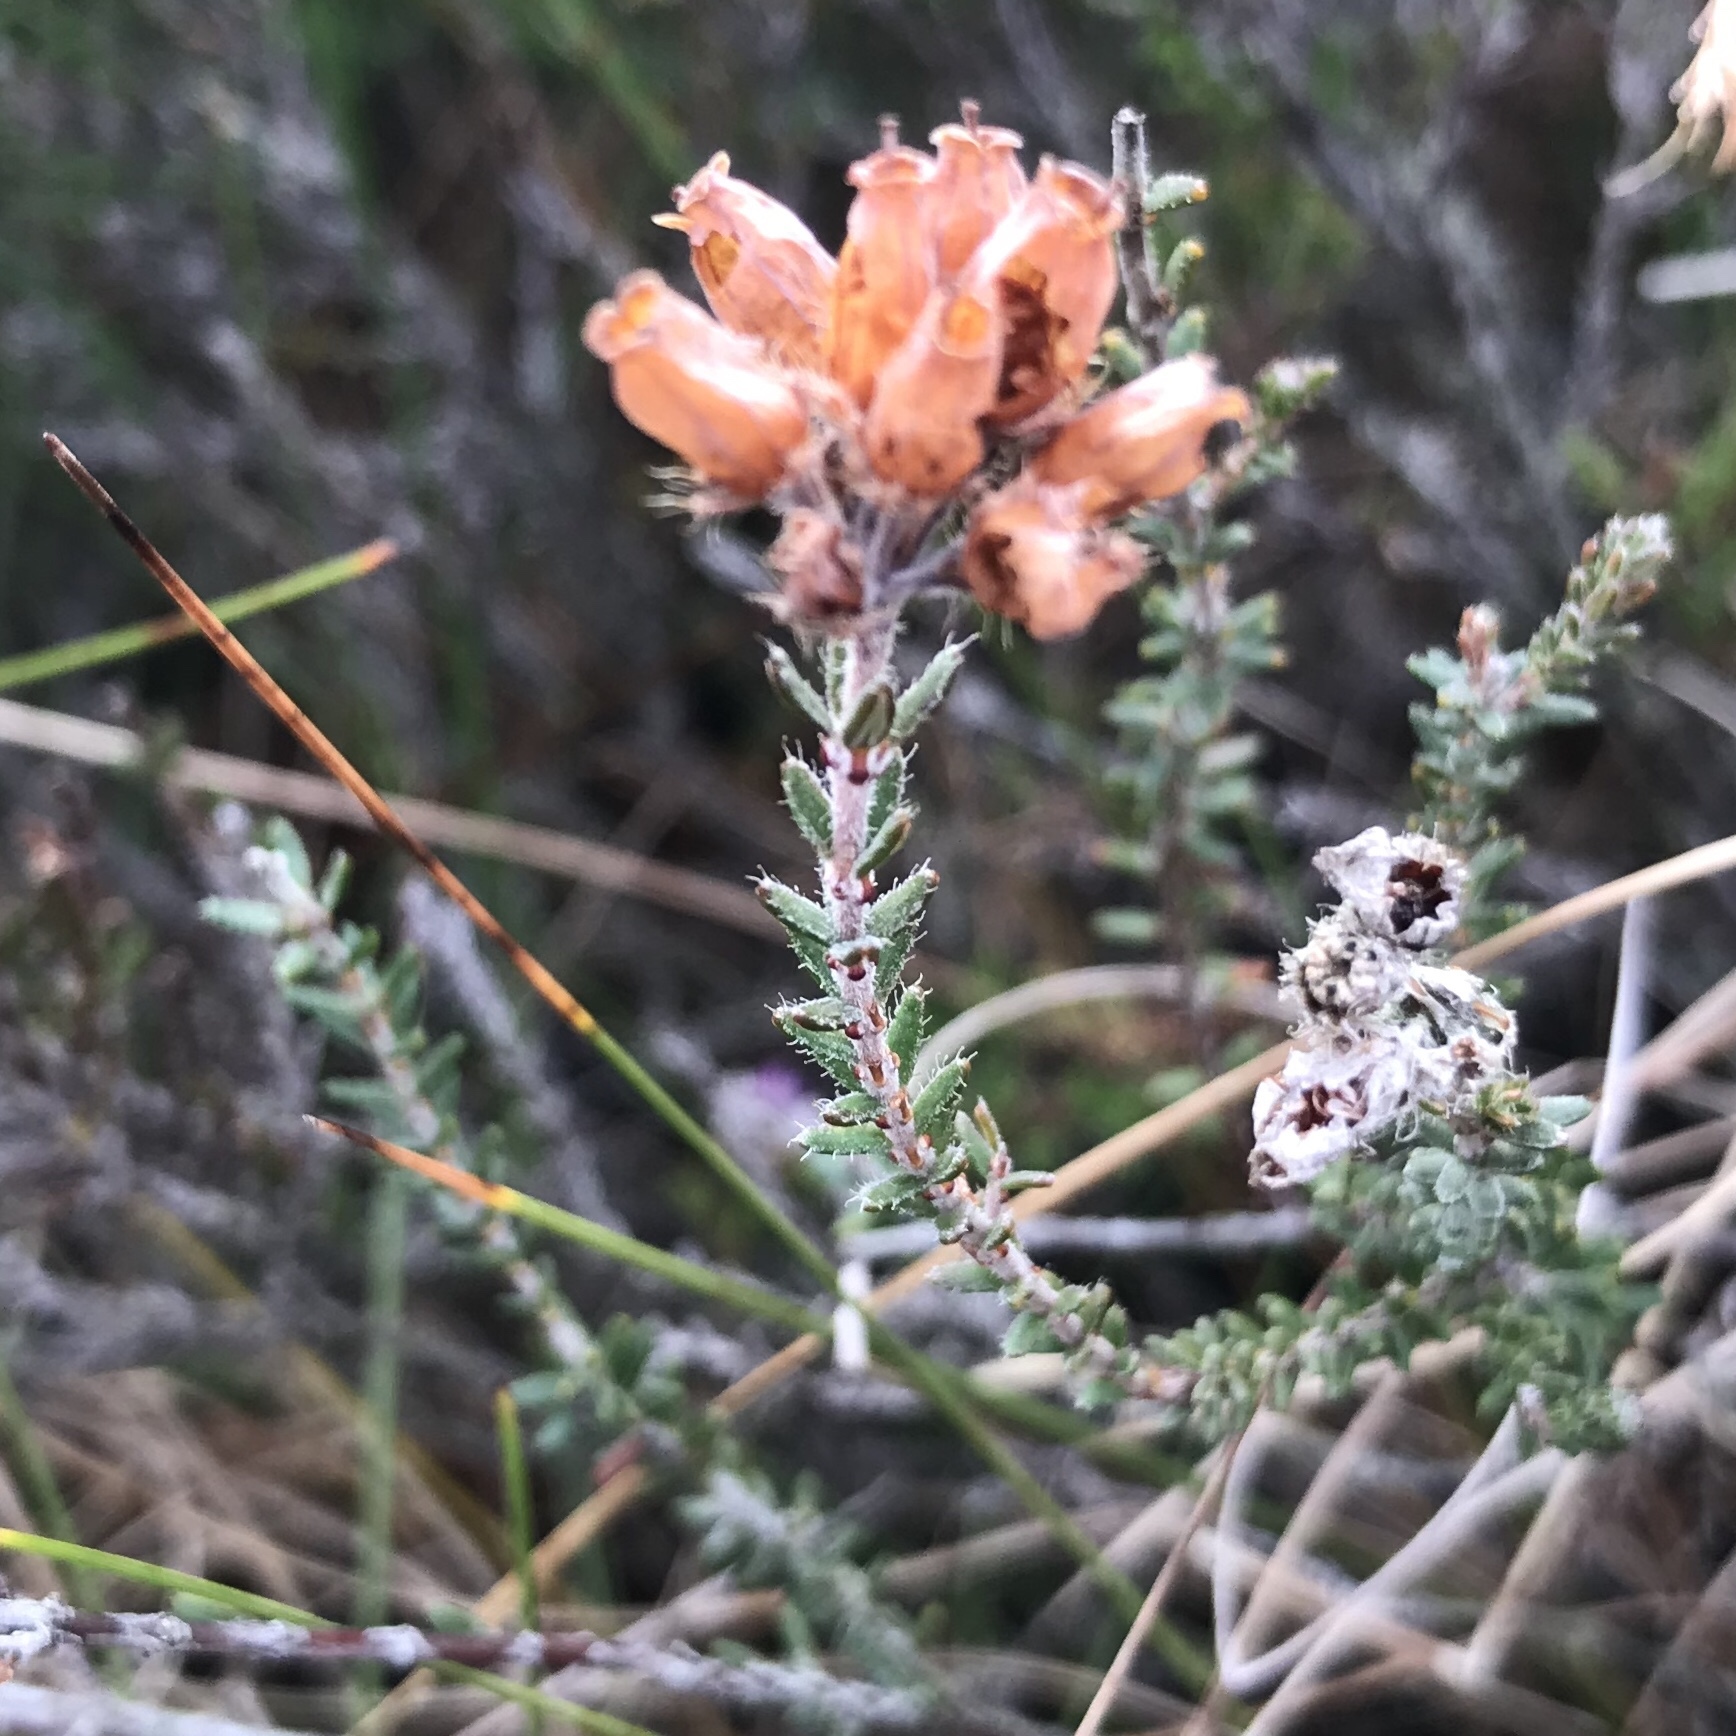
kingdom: Plantae
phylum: Tracheophyta
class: Magnoliopsida
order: Ericales
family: Ericaceae
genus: Erica
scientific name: Erica tetralix
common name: Cross-leaved heath
